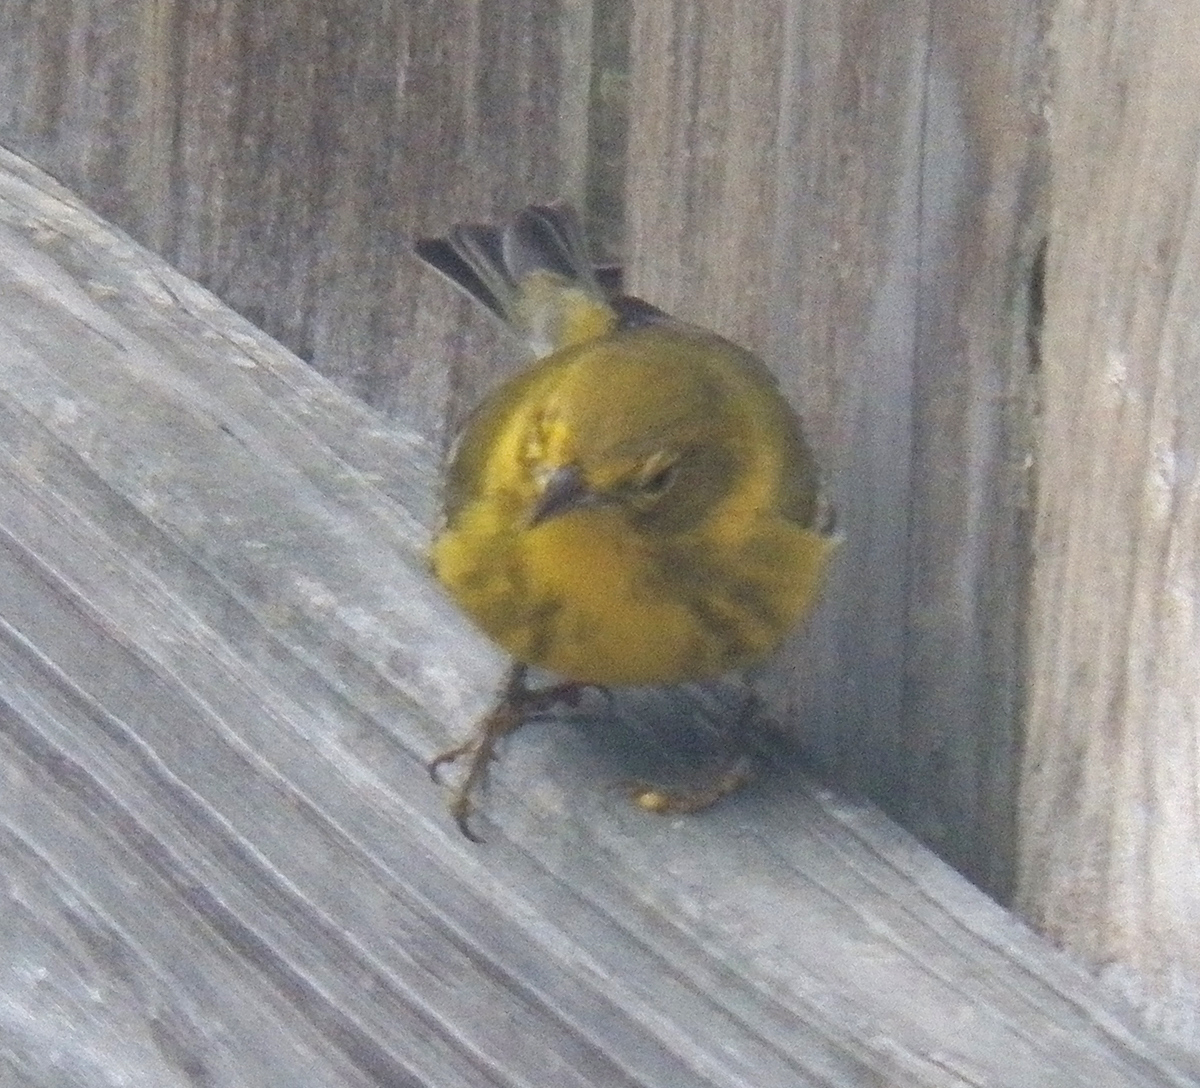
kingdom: Animalia
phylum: Chordata
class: Aves
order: Passeriformes
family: Parulidae
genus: Setophaga
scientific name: Setophaga pinus
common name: Pine warbler
